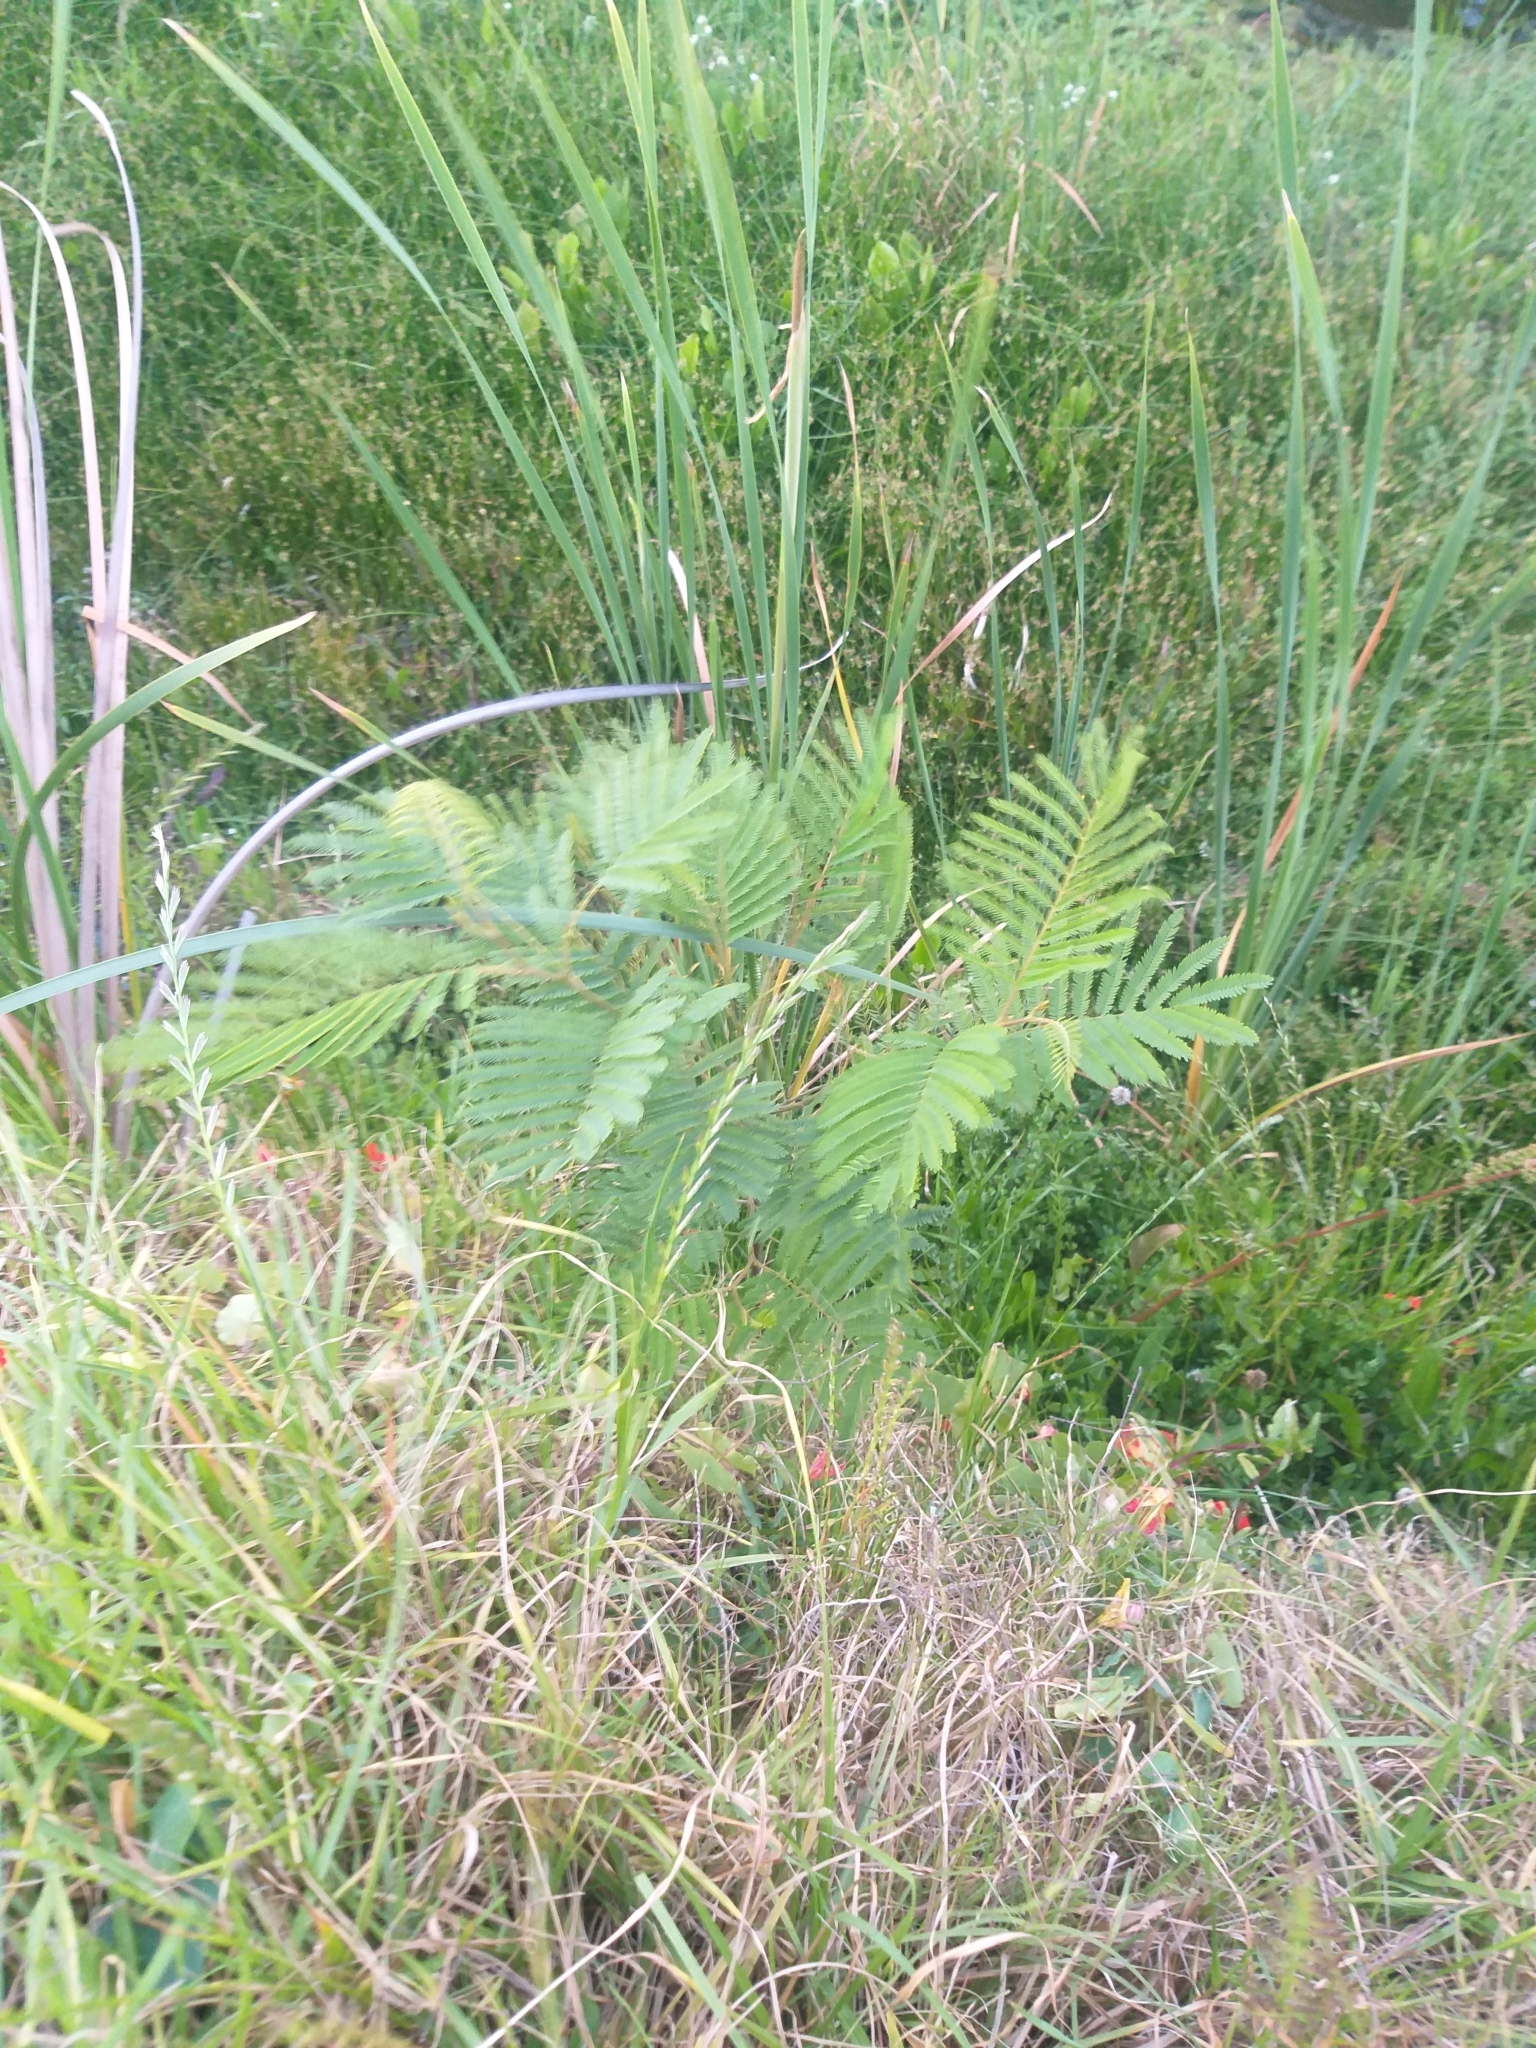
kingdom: Plantae
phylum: Tracheophyta
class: Magnoliopsida
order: Fabales
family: Fabaceae
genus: Paraserianthes
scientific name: Paraserianthes lophantha
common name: Plume albizia
